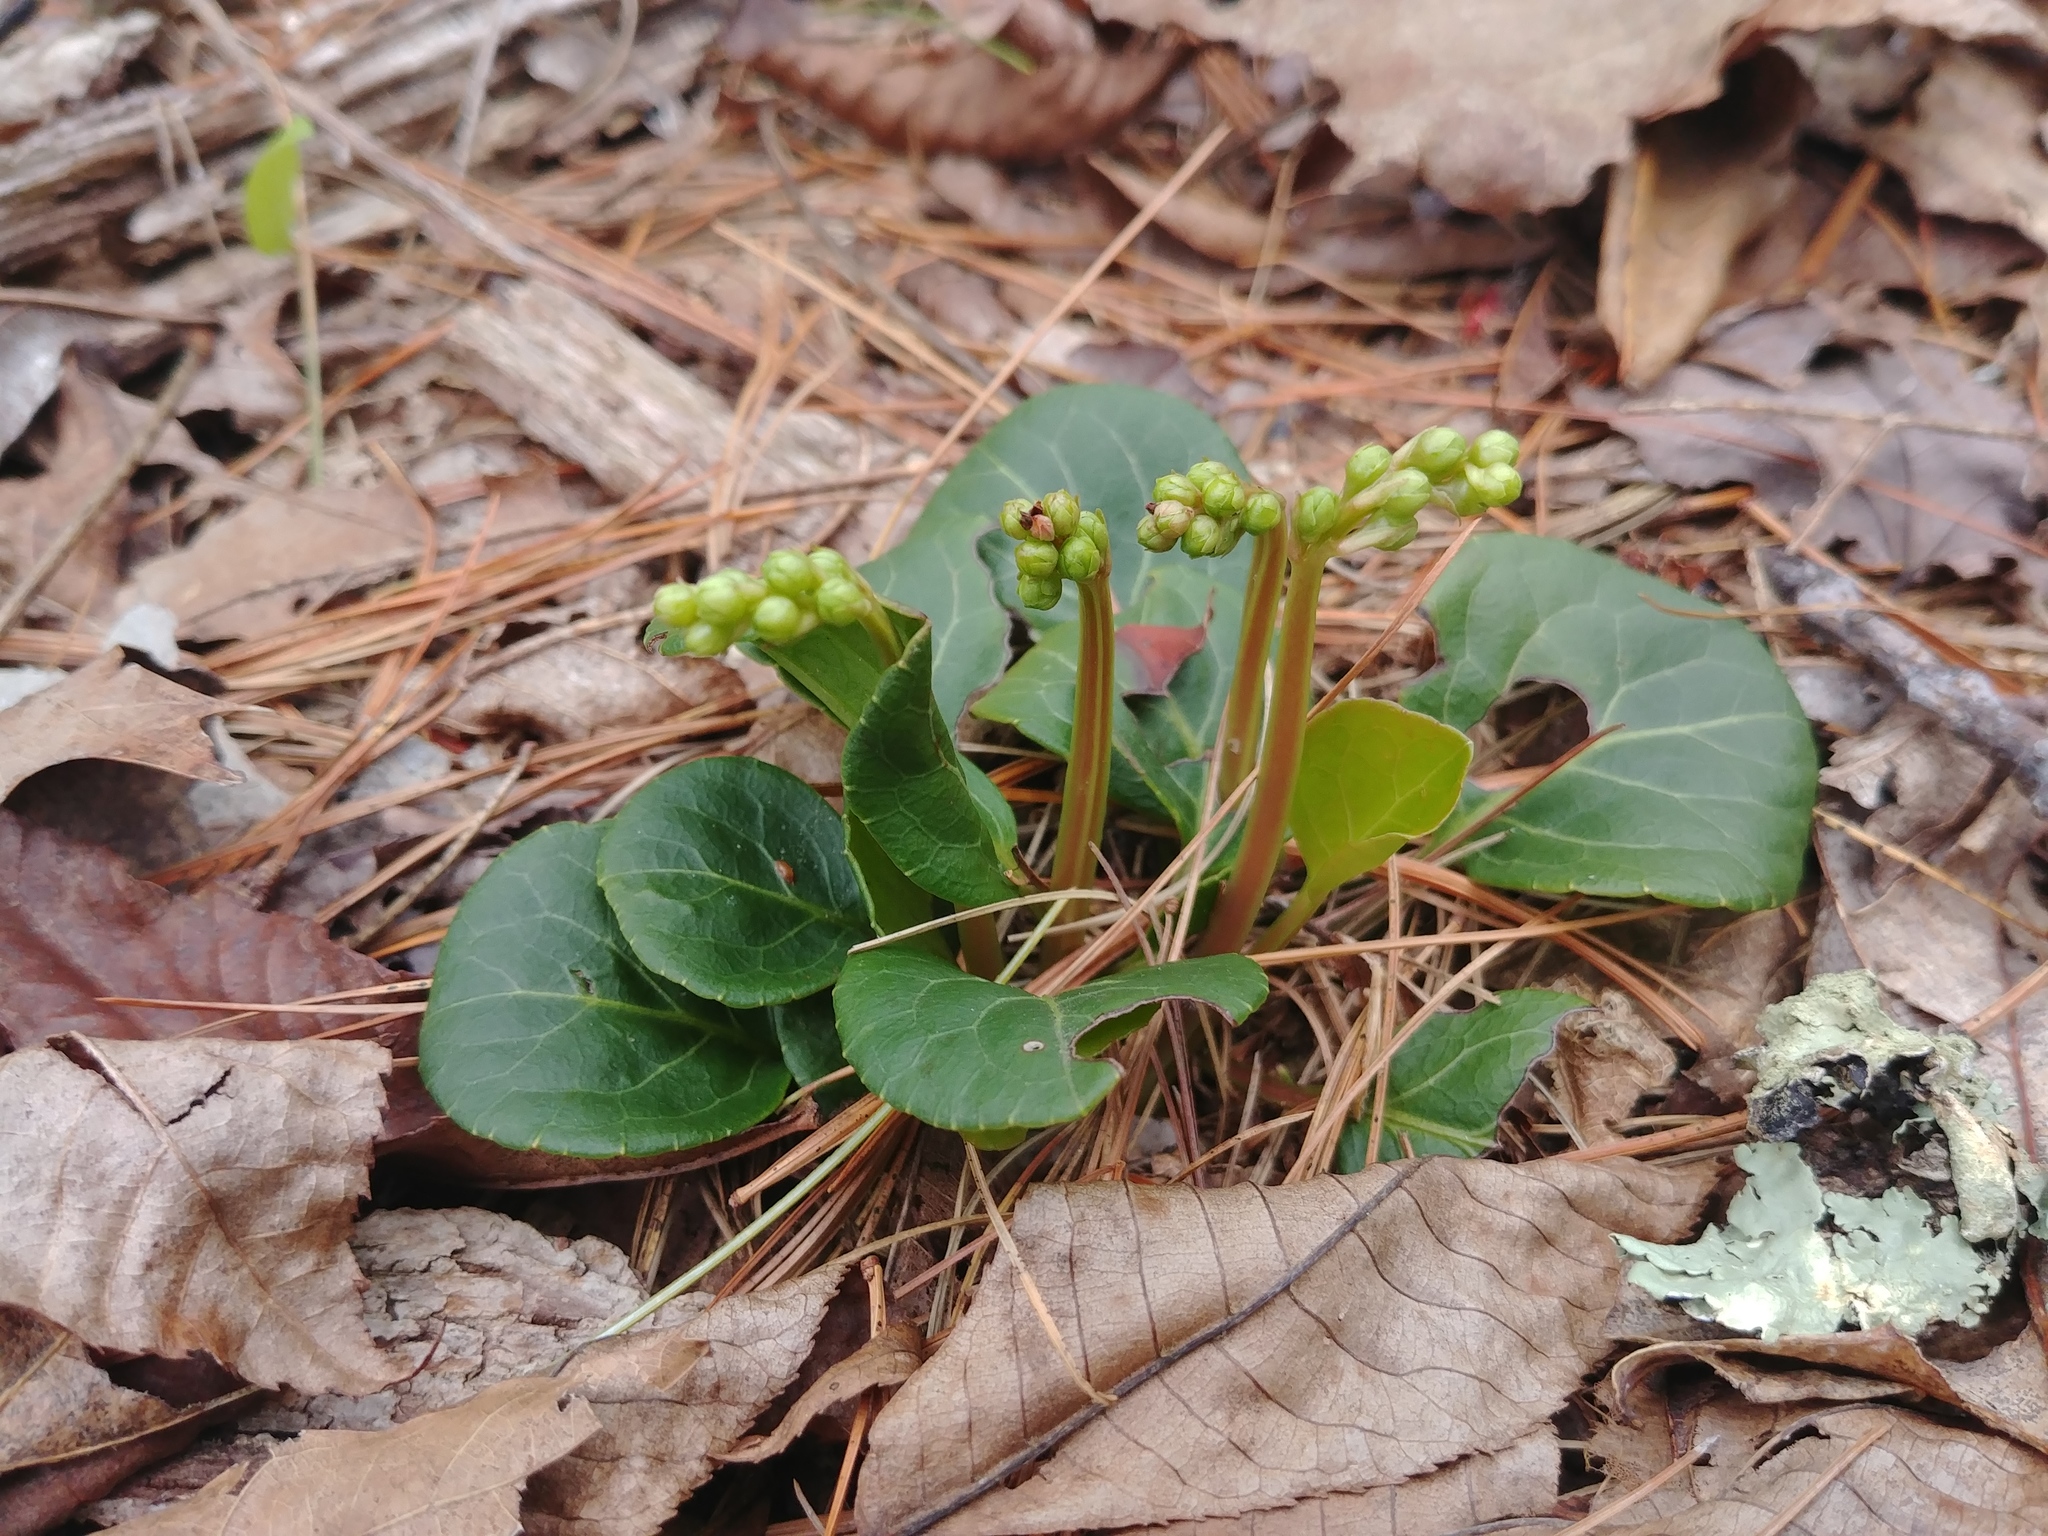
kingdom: Plantae
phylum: Tracheophyta
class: Magnoliopsida
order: Ericales
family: Ericaceae
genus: Pyrola
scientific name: Pyrola americana
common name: American wintergreen
